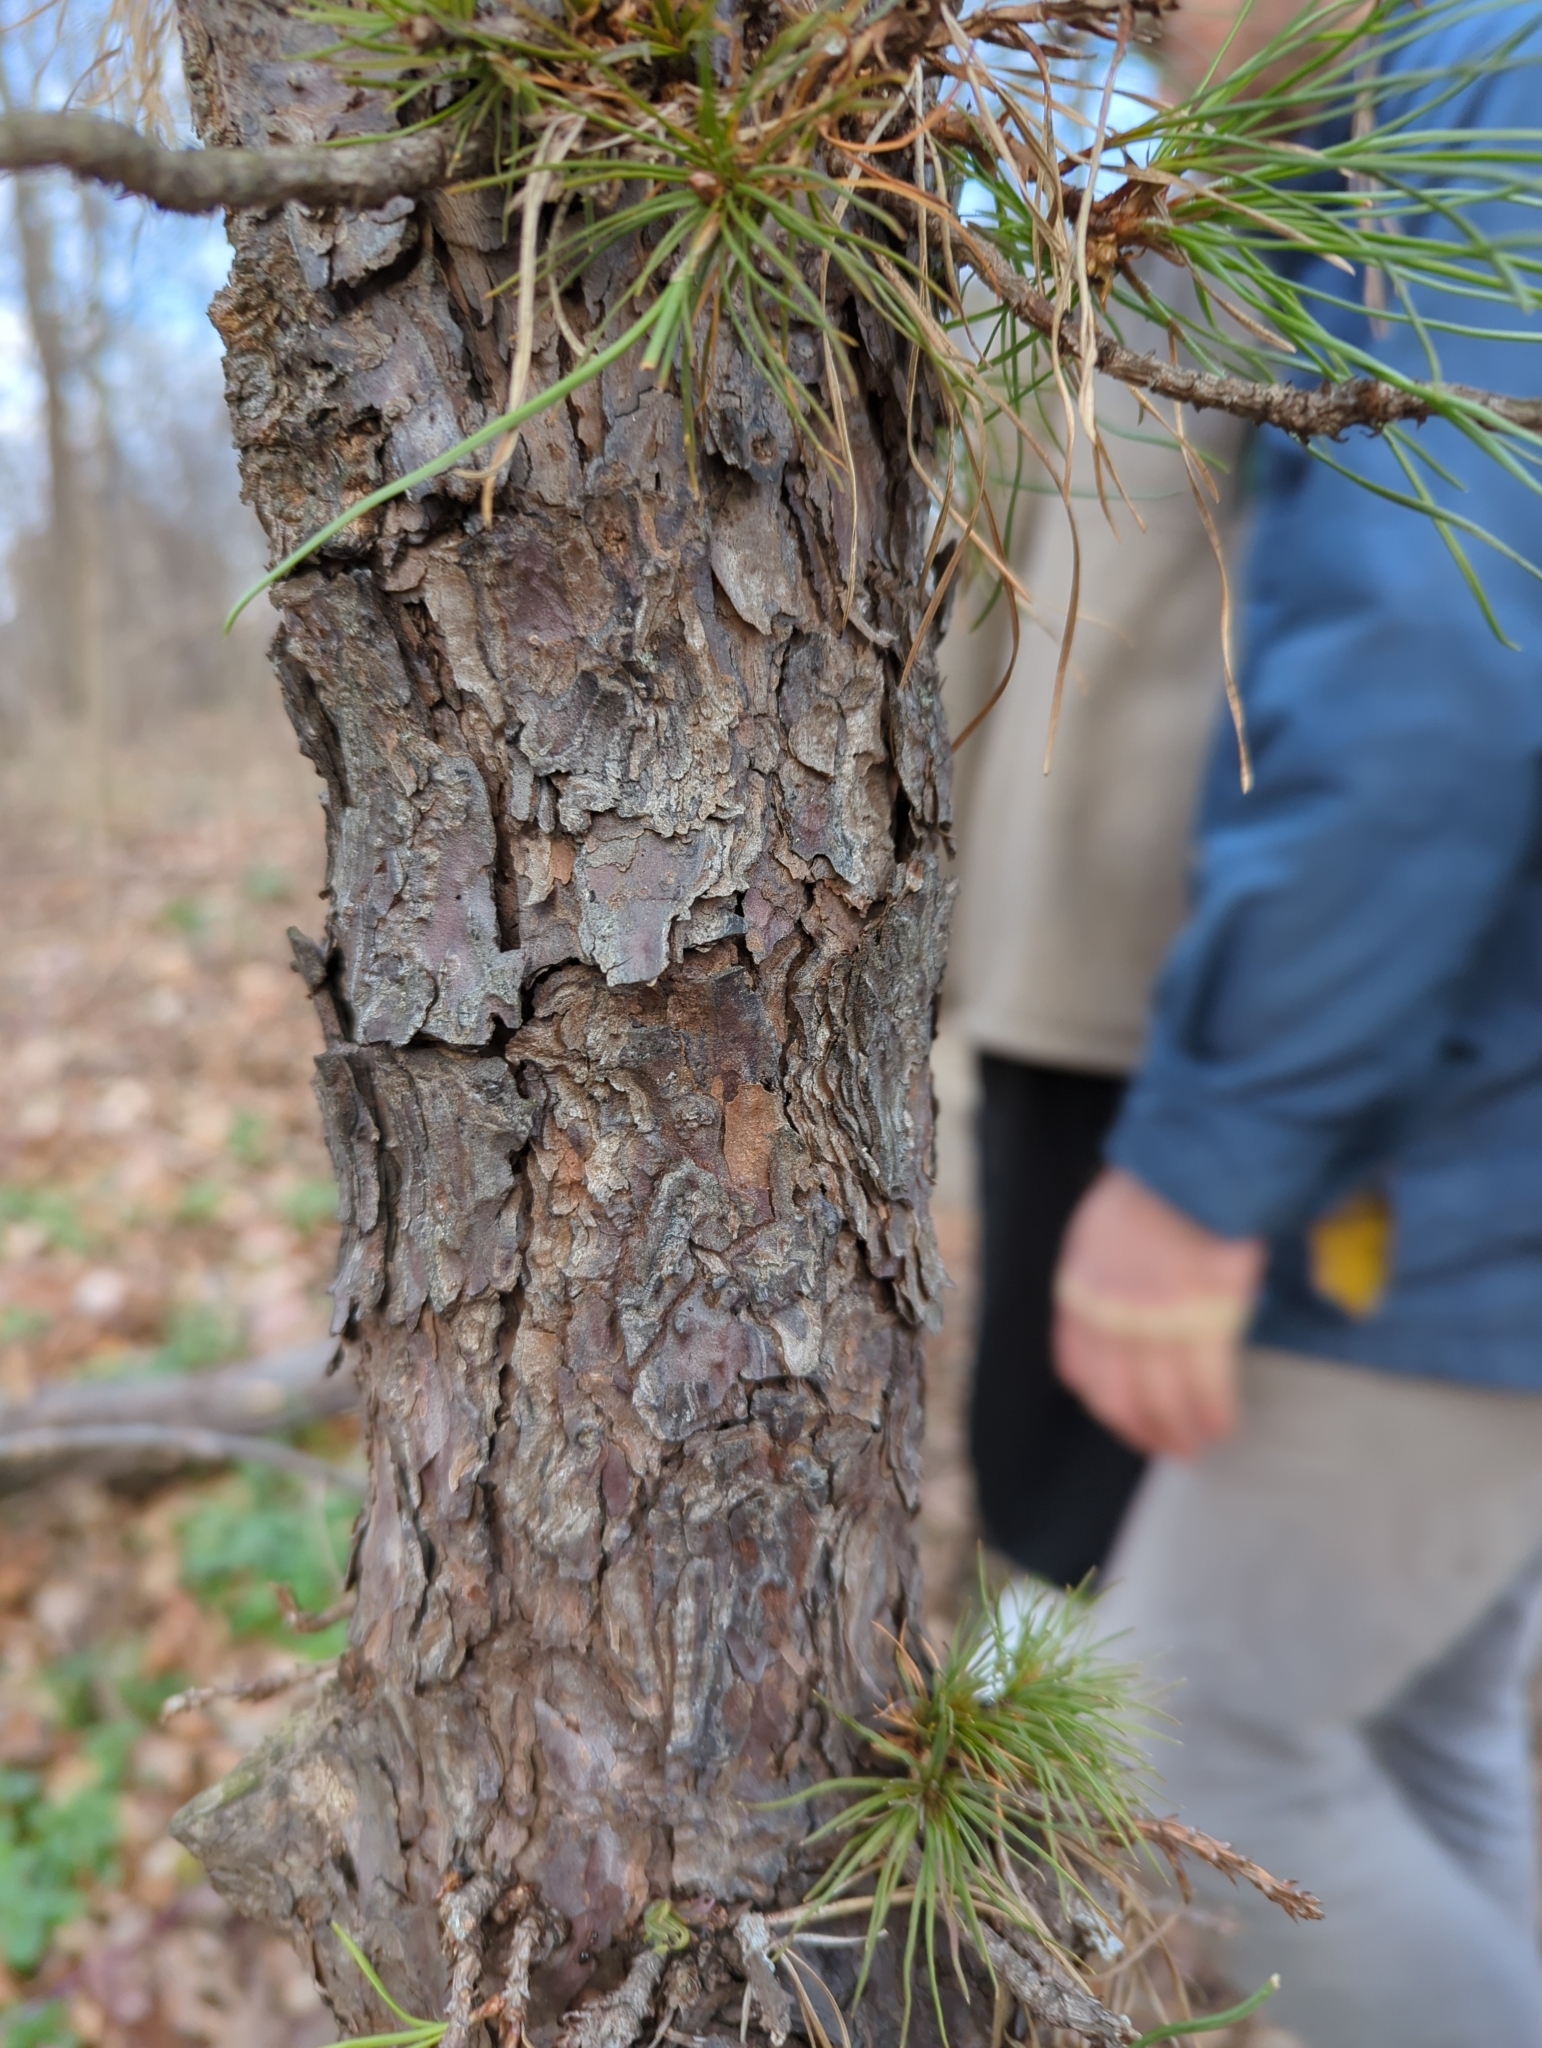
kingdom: Plantae
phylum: Tracheophyta
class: Pinopsida
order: Pinales
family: Pinaceae
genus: Pinus
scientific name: Pinus rigida
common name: Pitch pine
